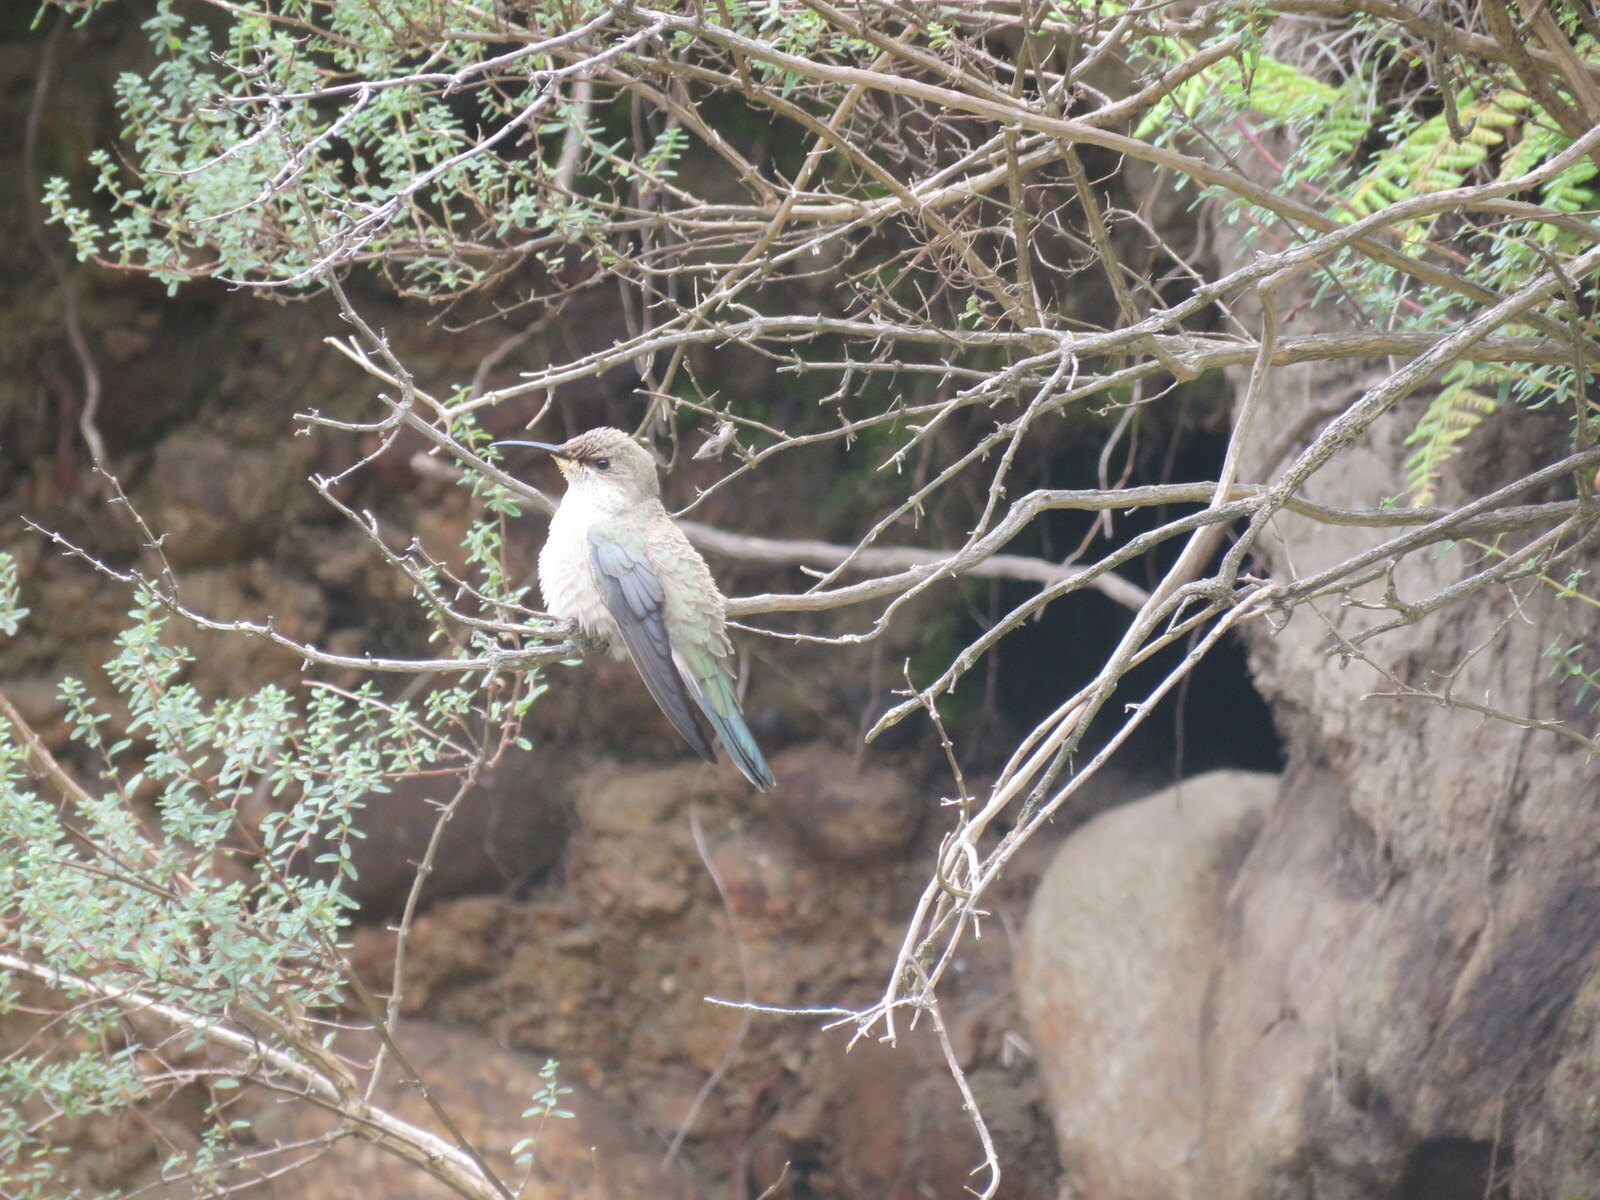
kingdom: Animalia
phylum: Chordata
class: Aves
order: Apodiformes
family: Trochilidae
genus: Oreotrochilus
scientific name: Oreotrochilus leucopleurus
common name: White-sided hillstar
